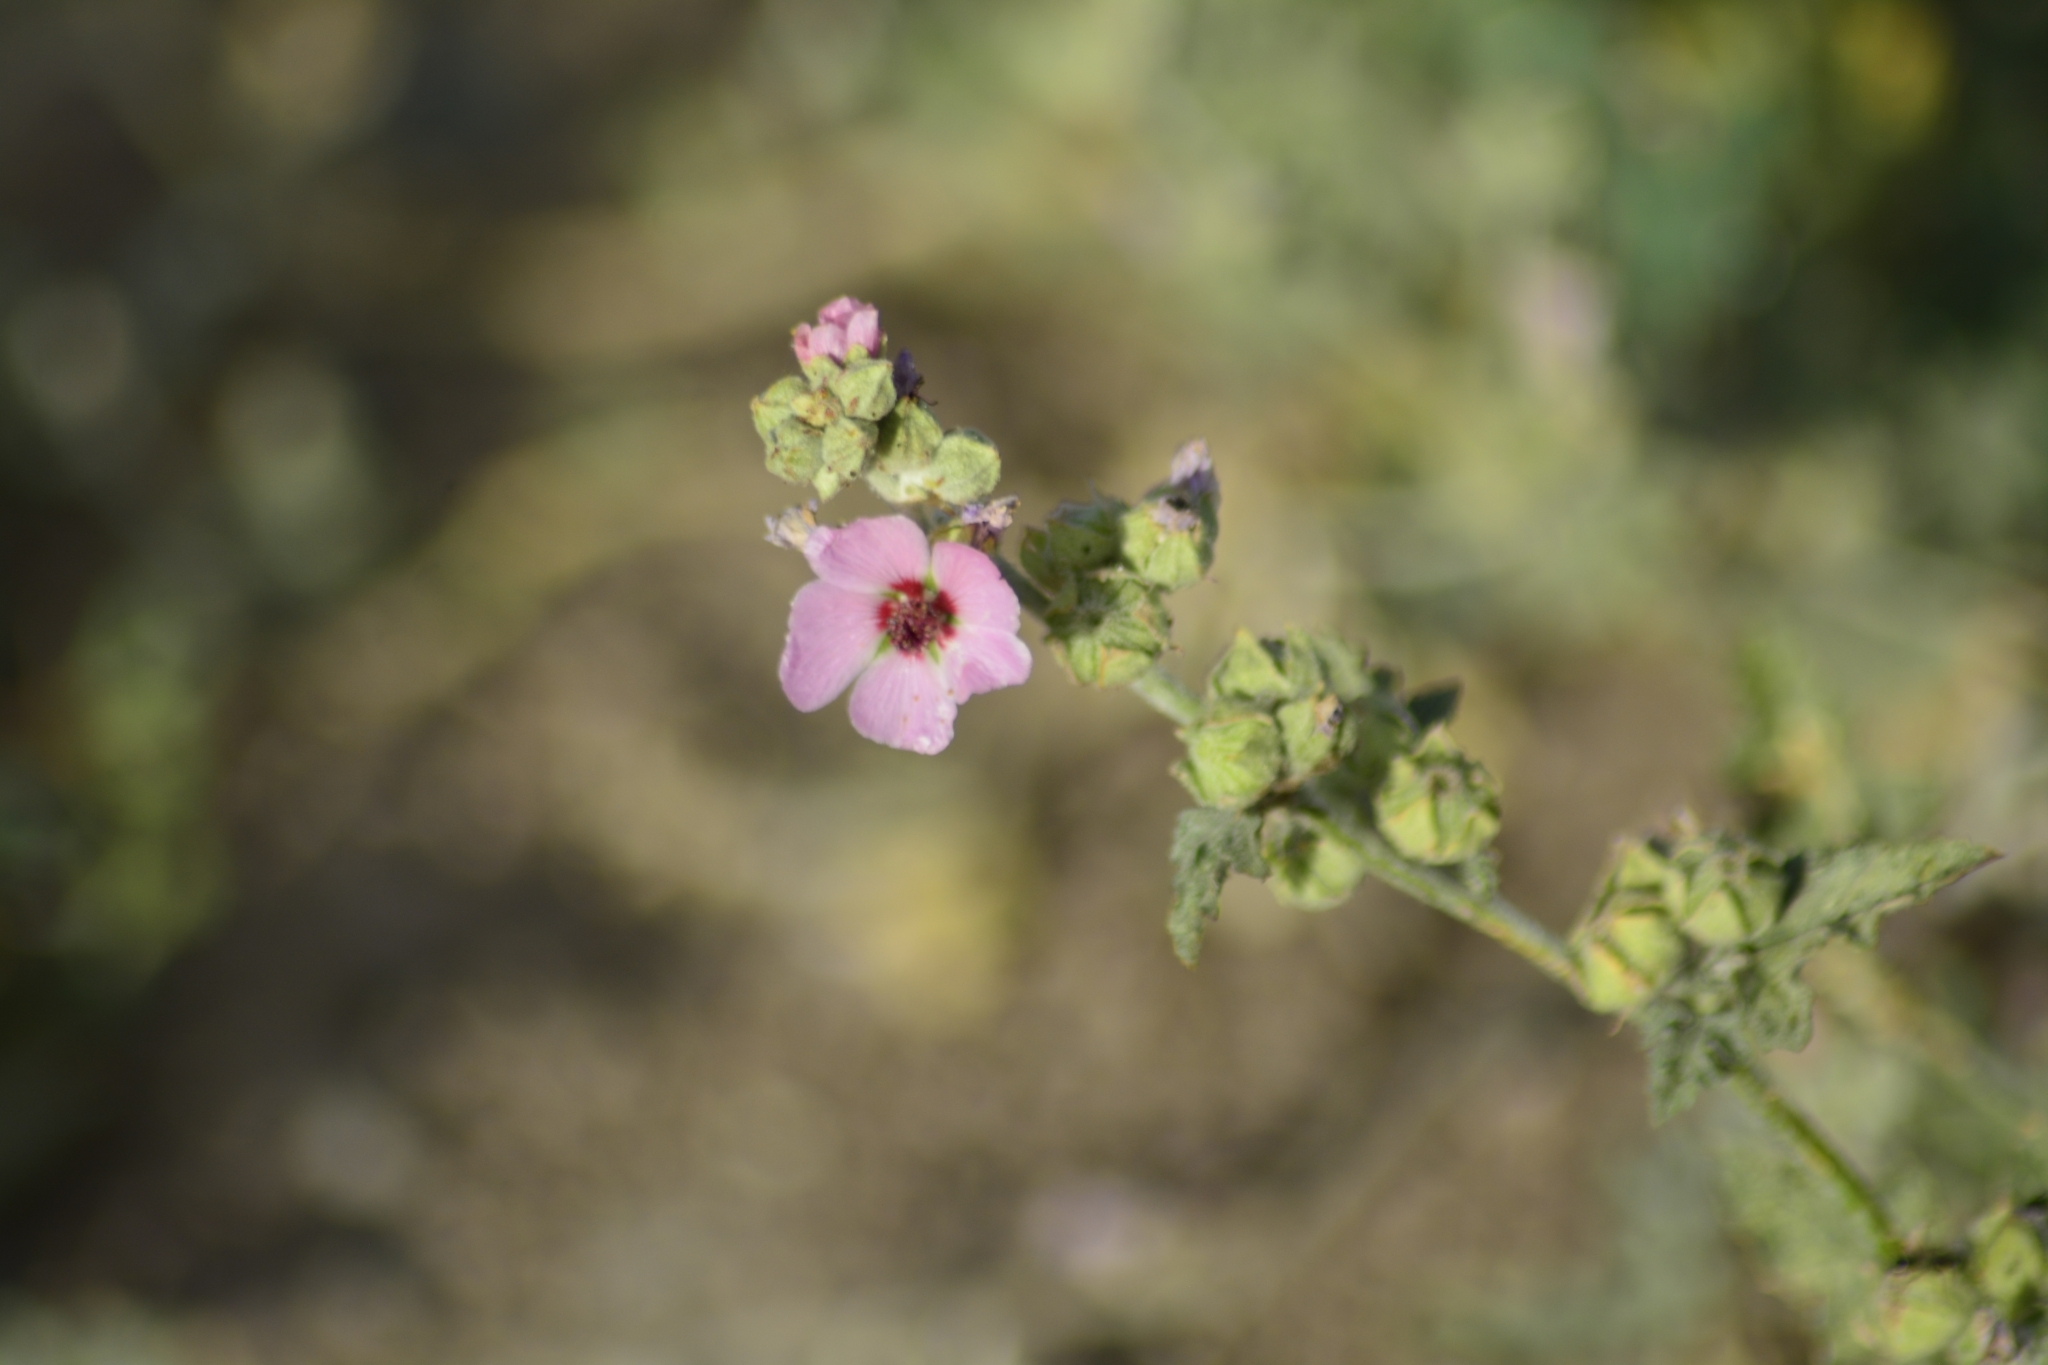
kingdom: Plantae
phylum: Tracheophyta
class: Magnoliopsida
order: Malvales
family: Malvaceae
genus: Sphaeralcea
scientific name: Sphaeralcea mendocina
